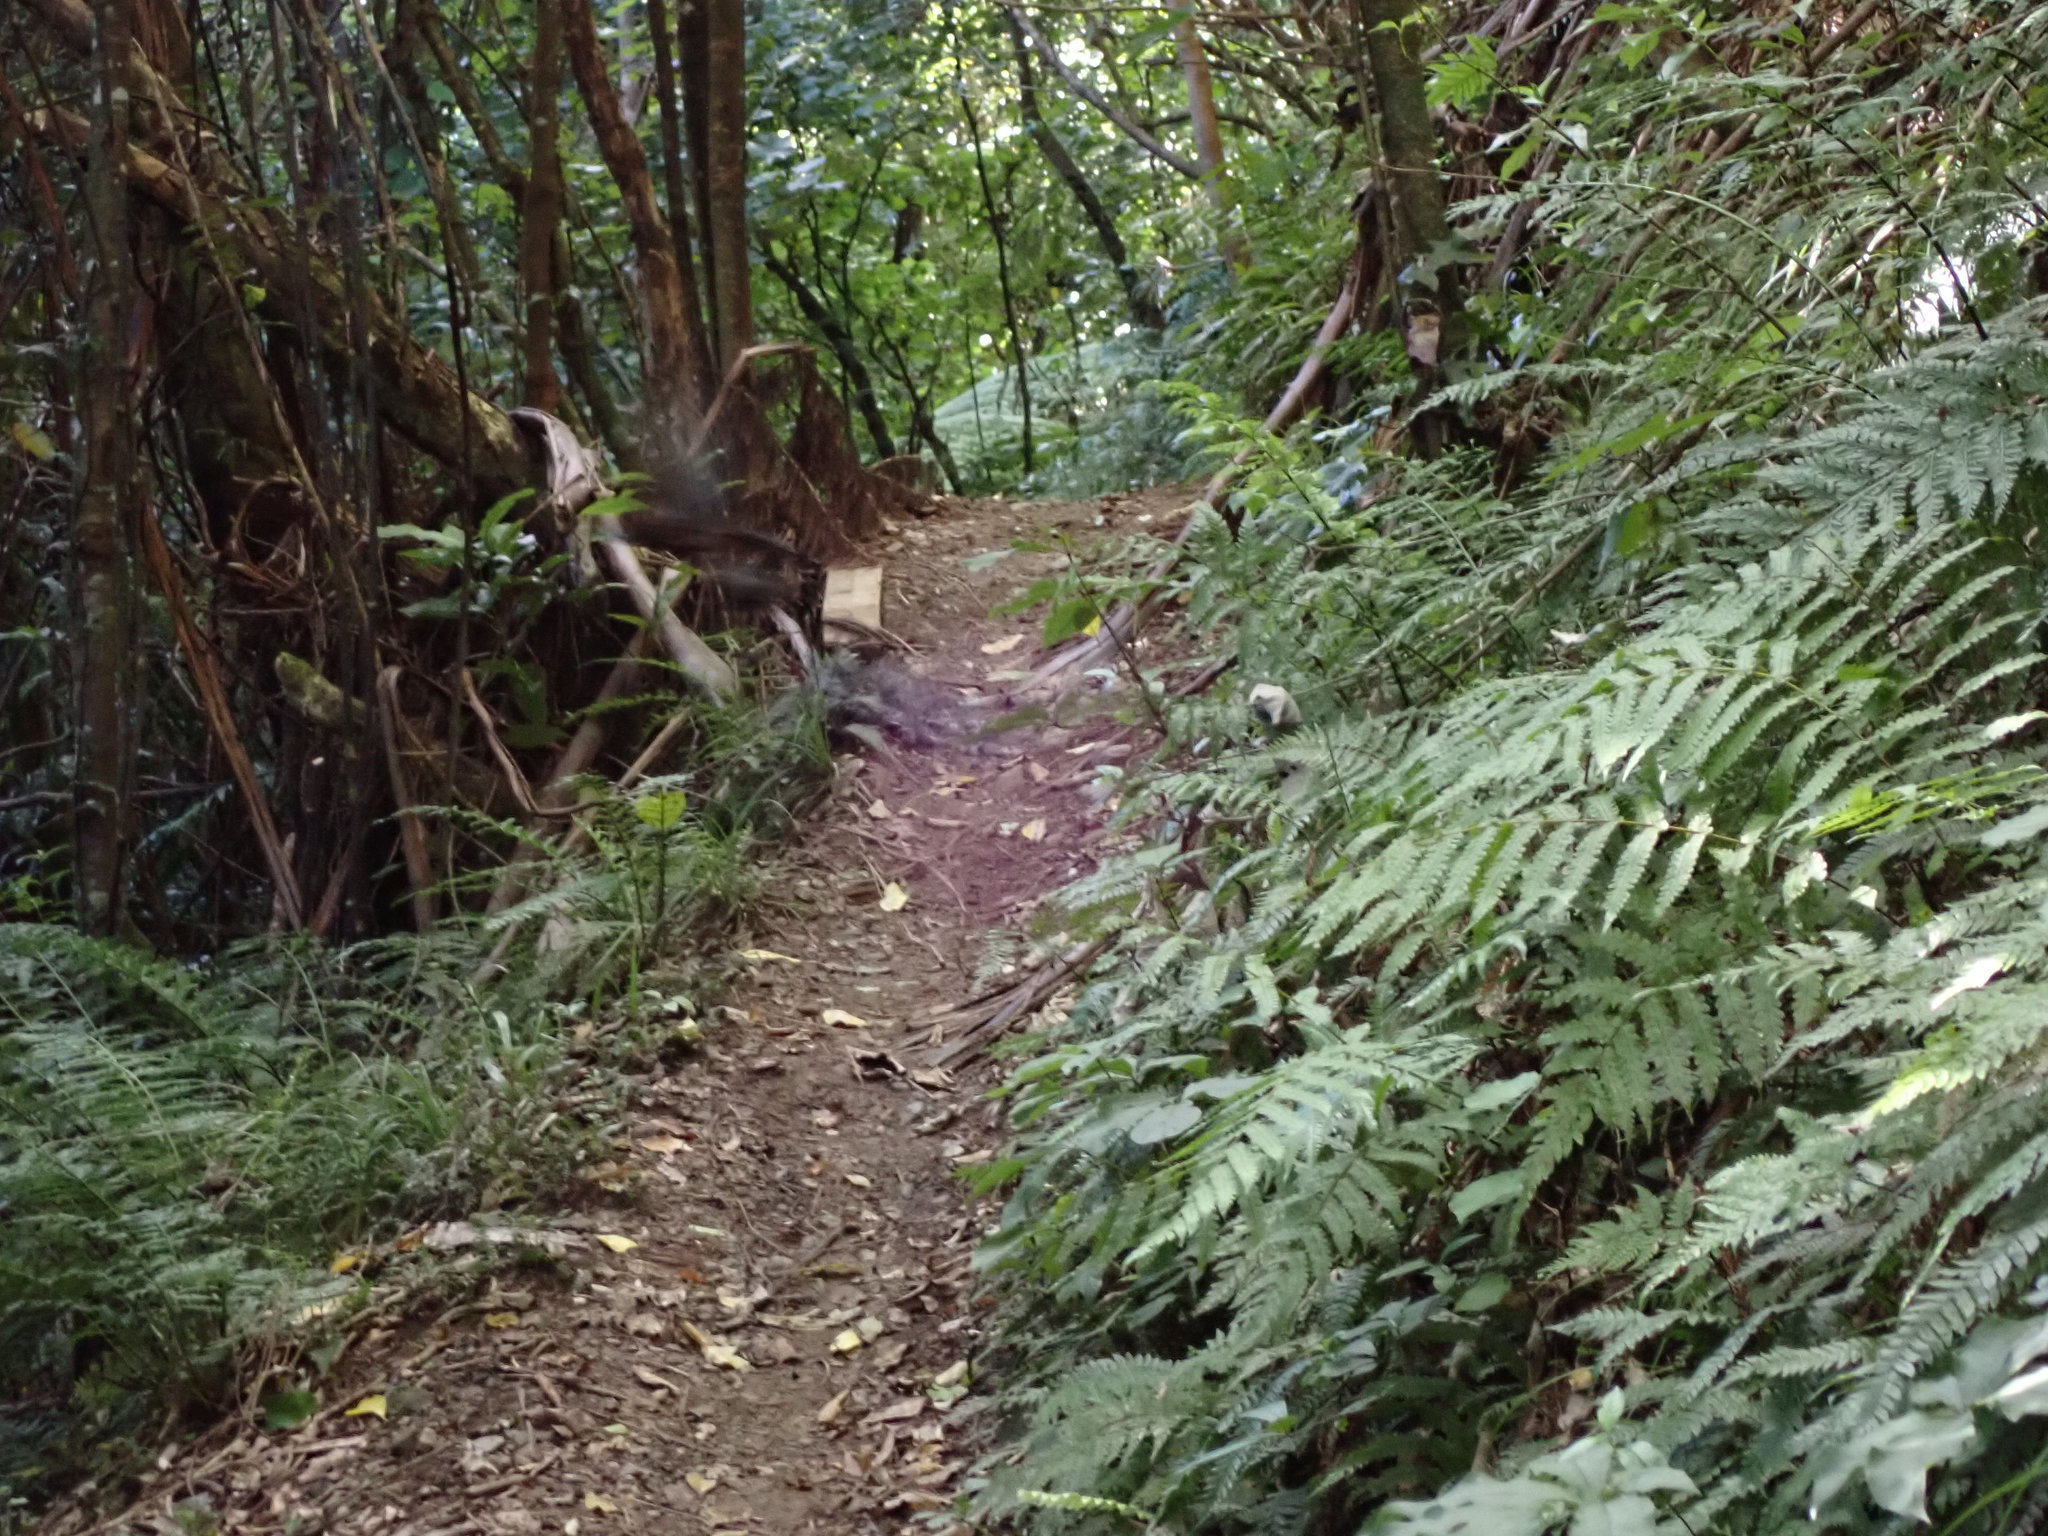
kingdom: Animalia
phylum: Chordata
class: Aves
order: Falconiformes
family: Falconidae
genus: Falco
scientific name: Falco novaeseelandiae
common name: New zealand falcon
